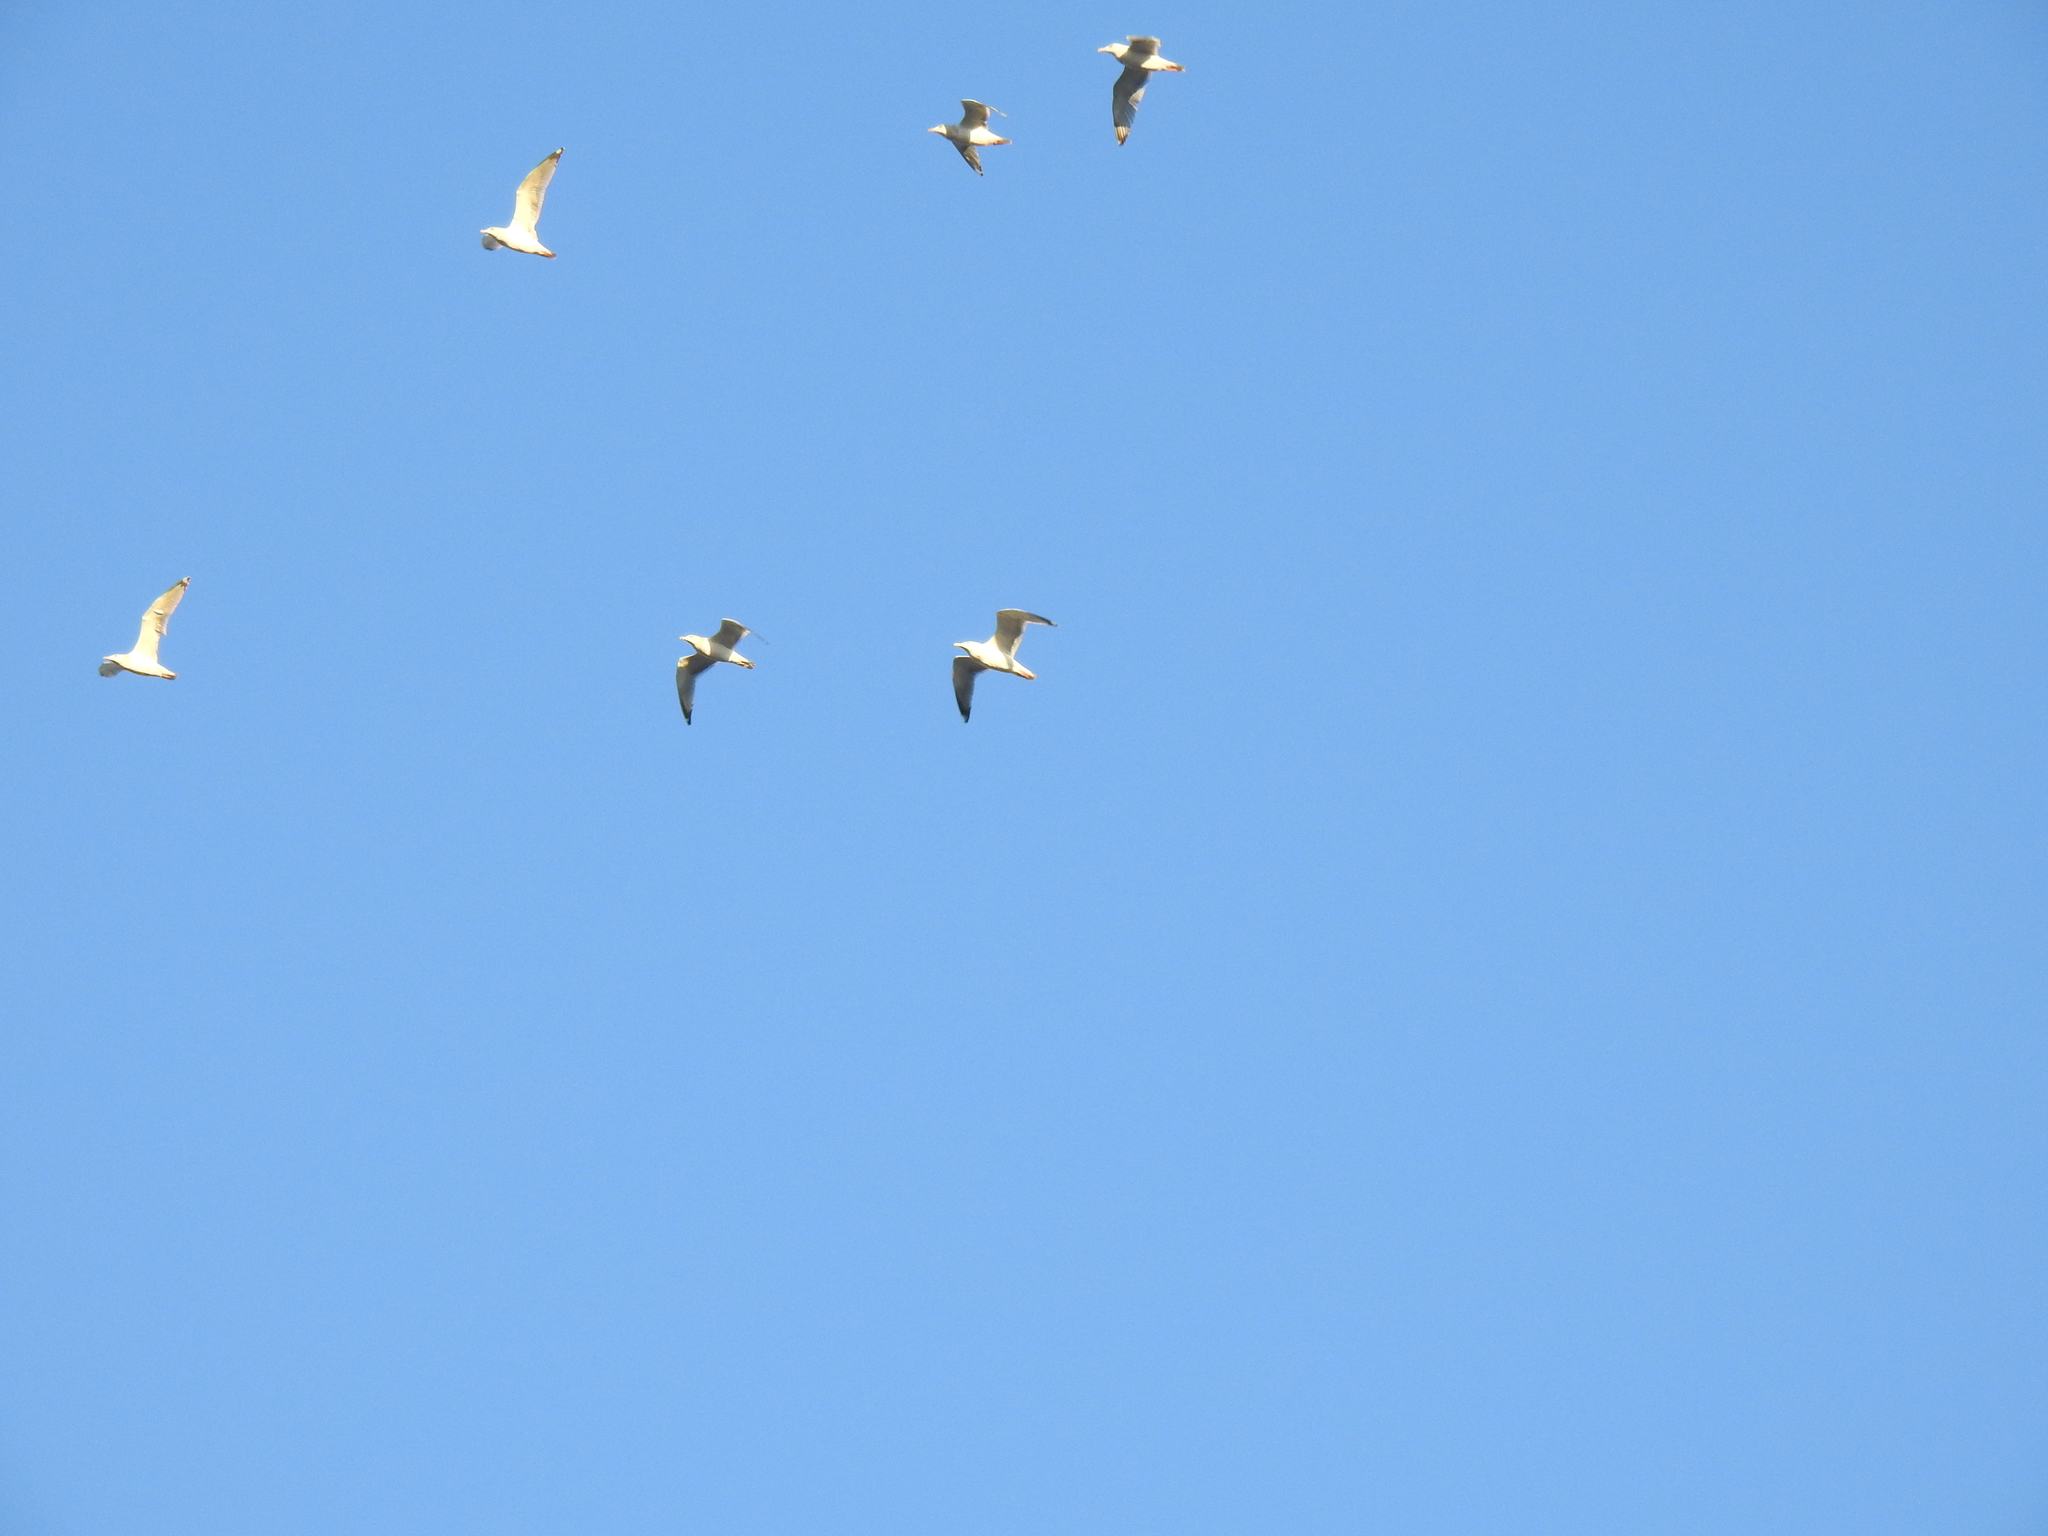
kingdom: Animalia
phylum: Chordata
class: Aves
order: Charadriiformes
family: Laridae
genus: Larus
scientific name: Larus
